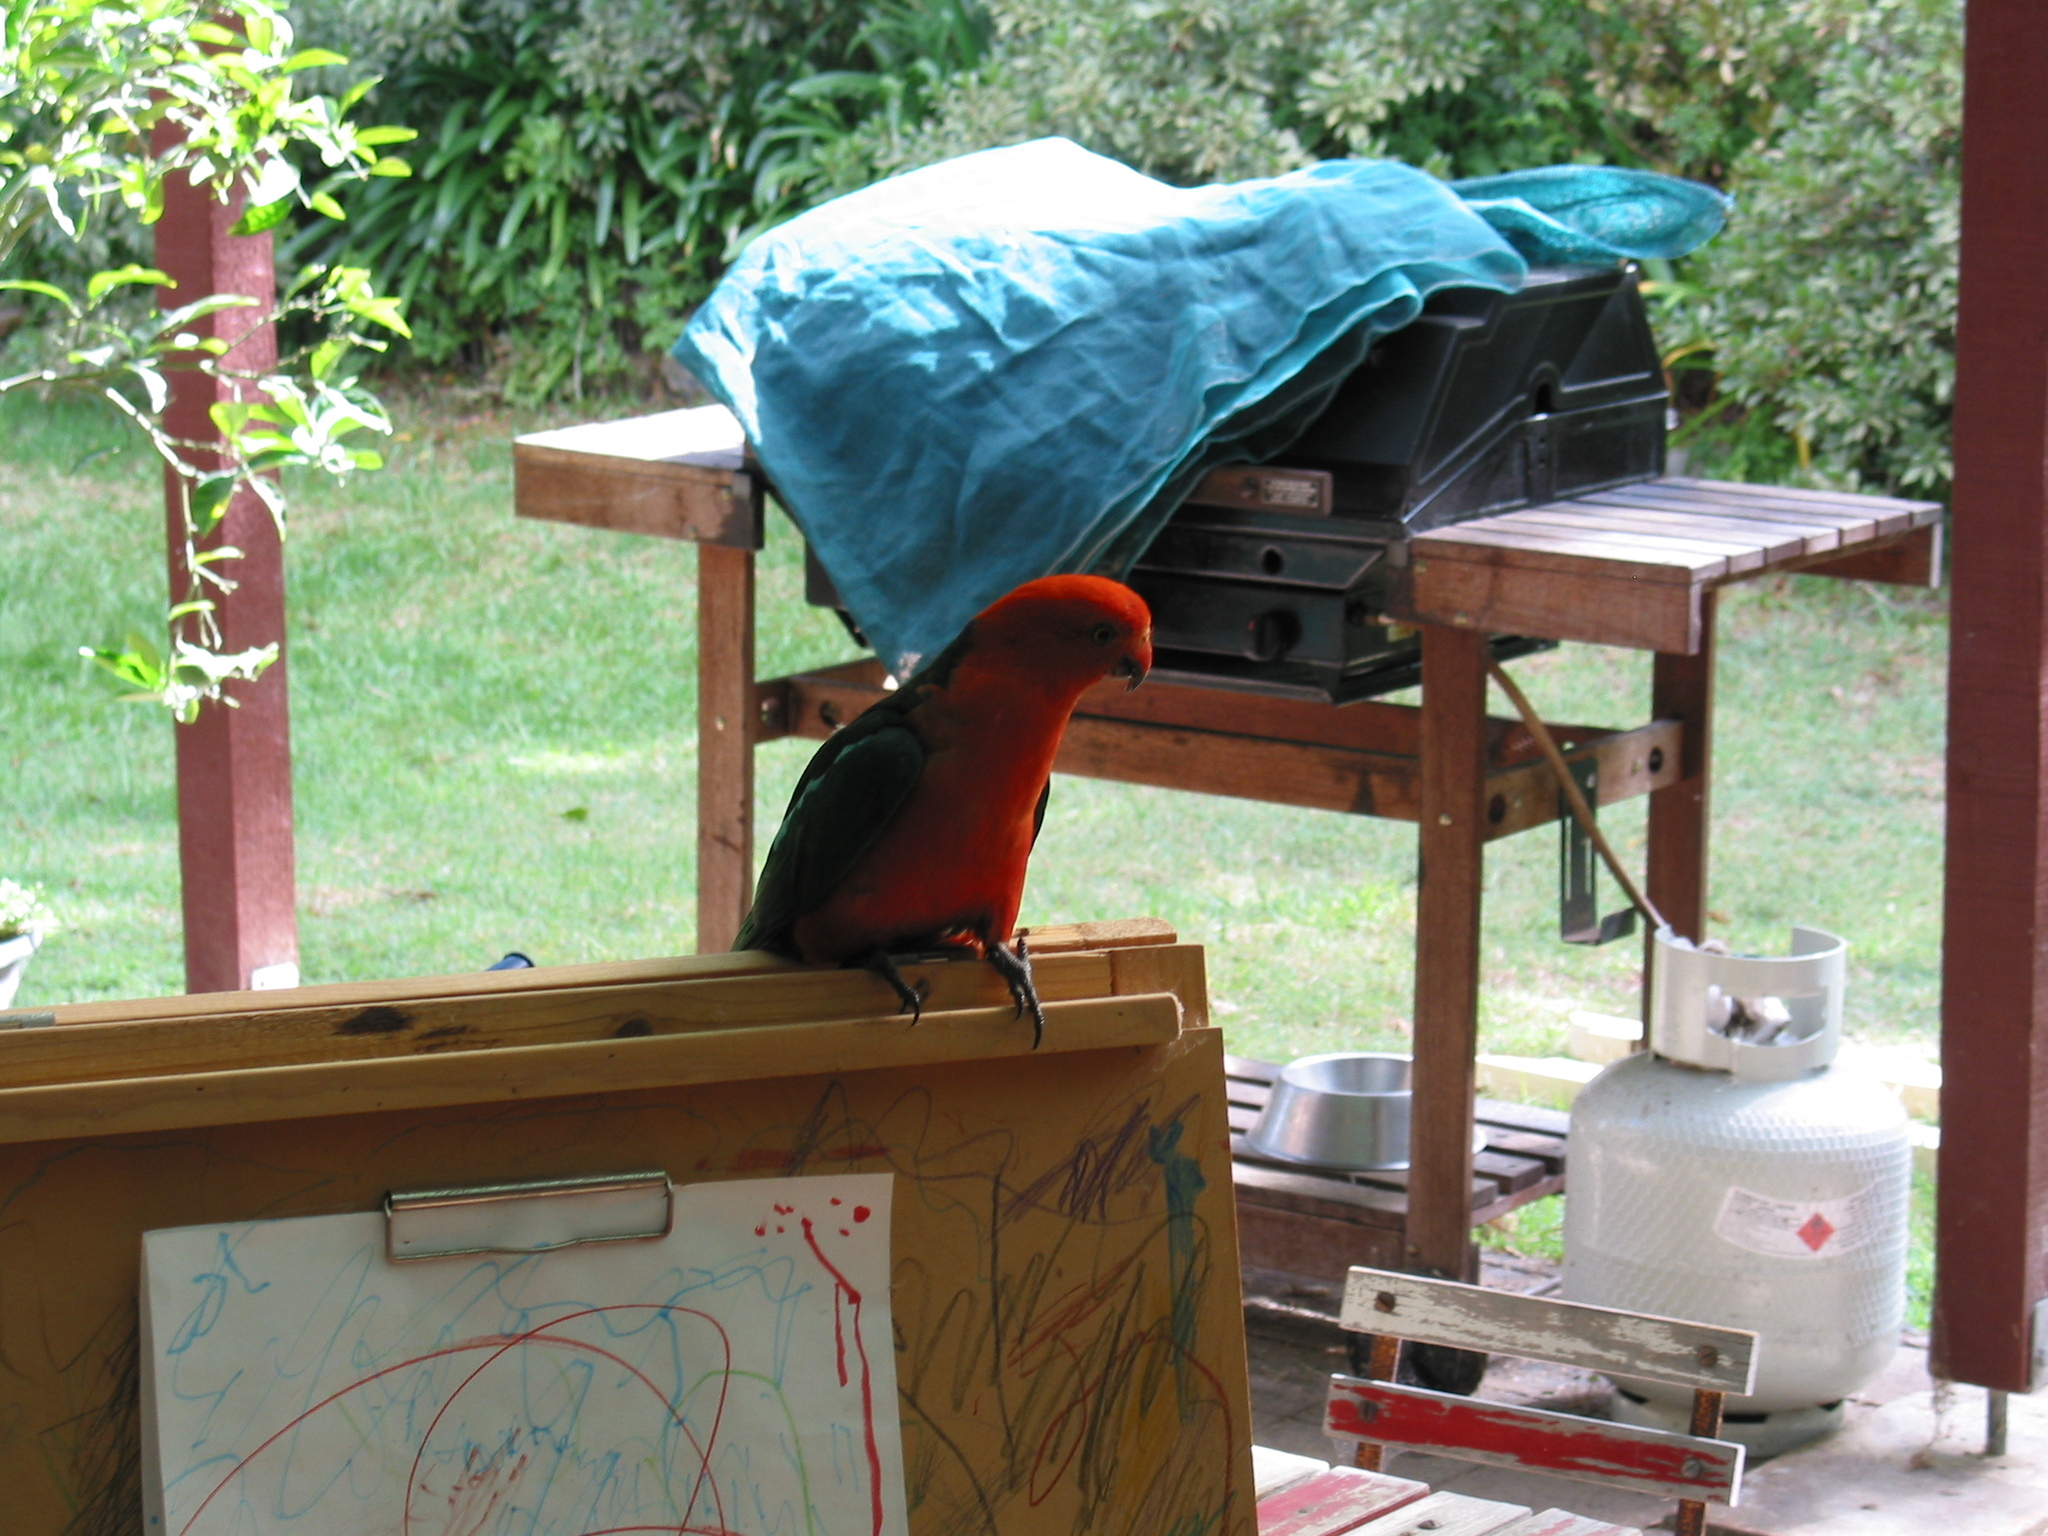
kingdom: Animalia
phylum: Chordata
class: Aves
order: Psittaciformes
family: Psittacidae
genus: Alisterus
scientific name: Alisterus scapularis
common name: Australian king parrot
